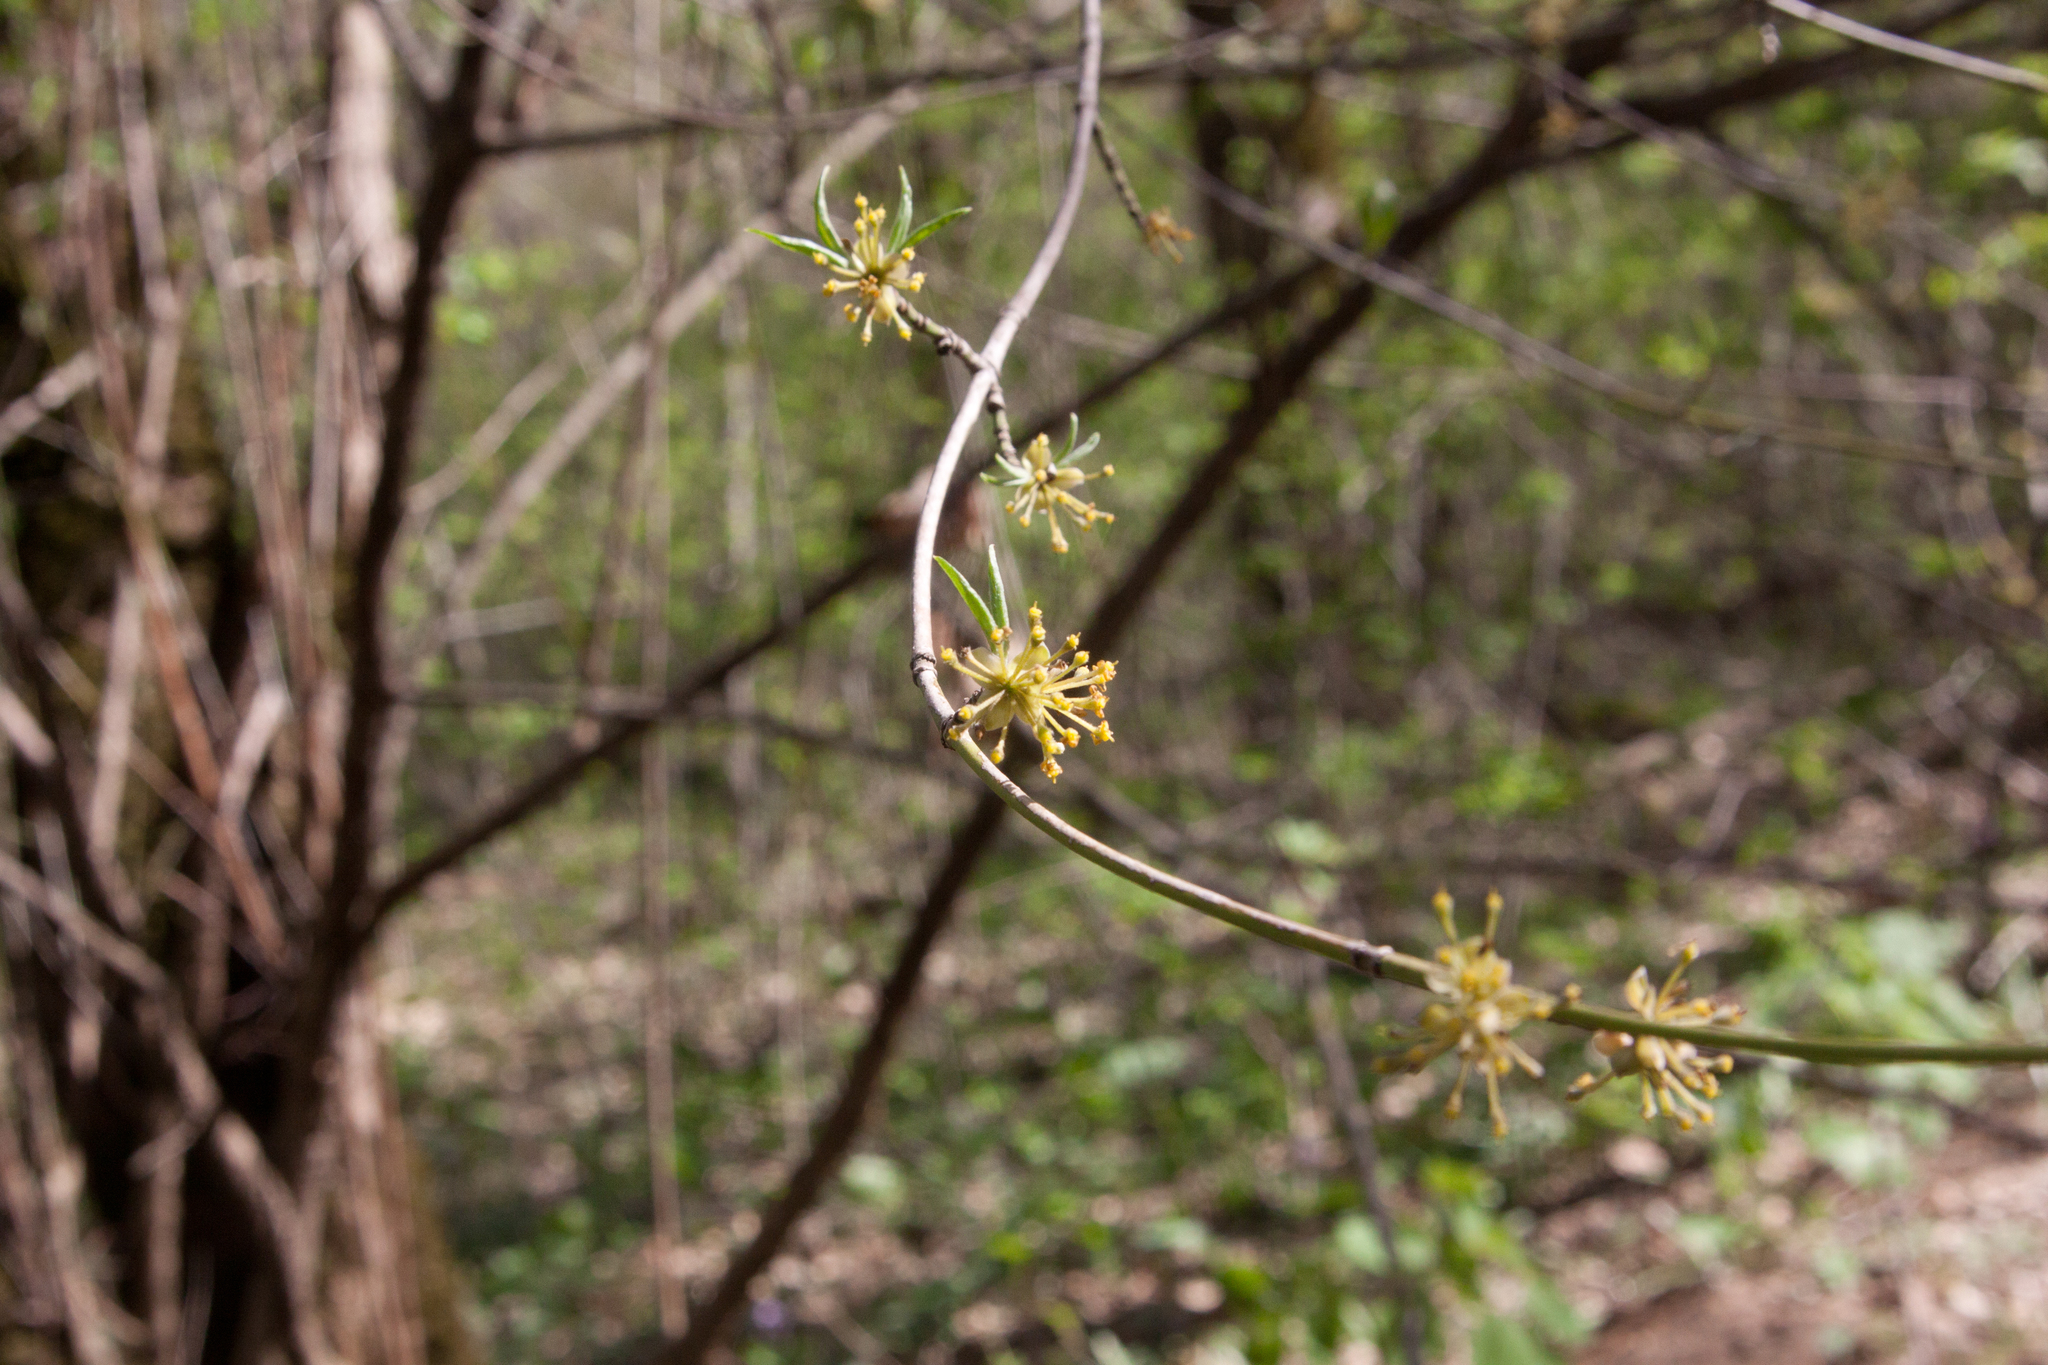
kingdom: Plantae
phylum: Tracheophyta
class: Magnoliopsida
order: Cornales
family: Cornaceae
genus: Cornus
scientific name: Cornus mas
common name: Cornelian-cherry
